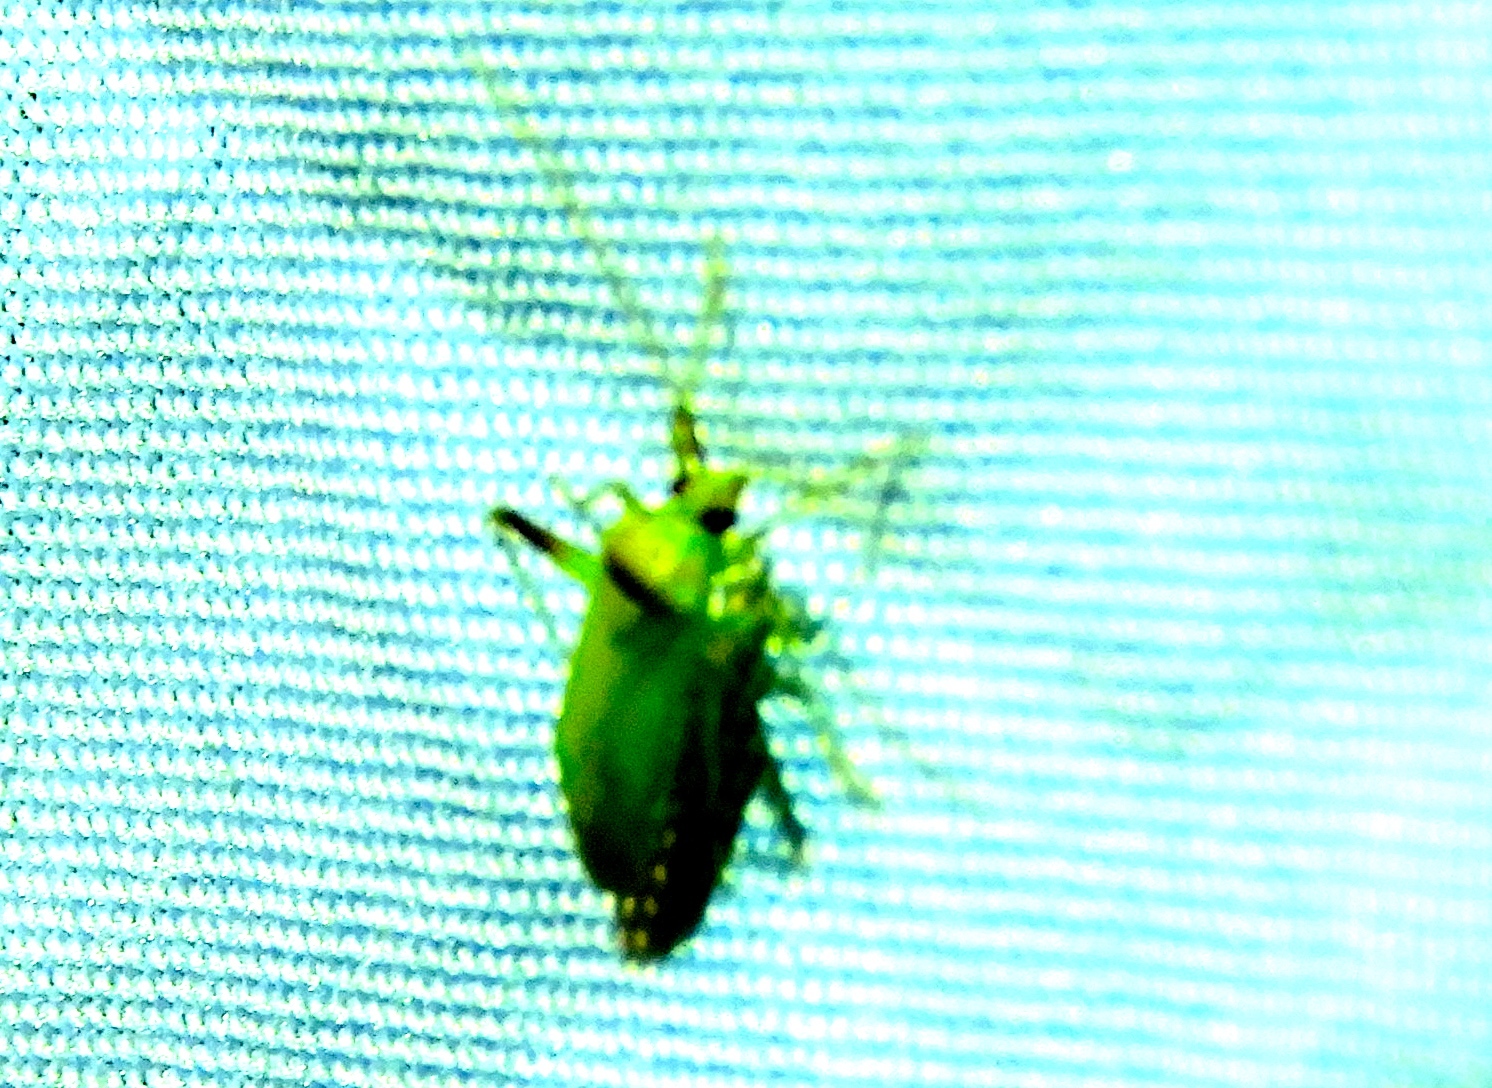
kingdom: Animalia
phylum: Arthropoda
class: Insecta
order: Hemiptera
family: Miridae
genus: Creontiades
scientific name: Creontiades
